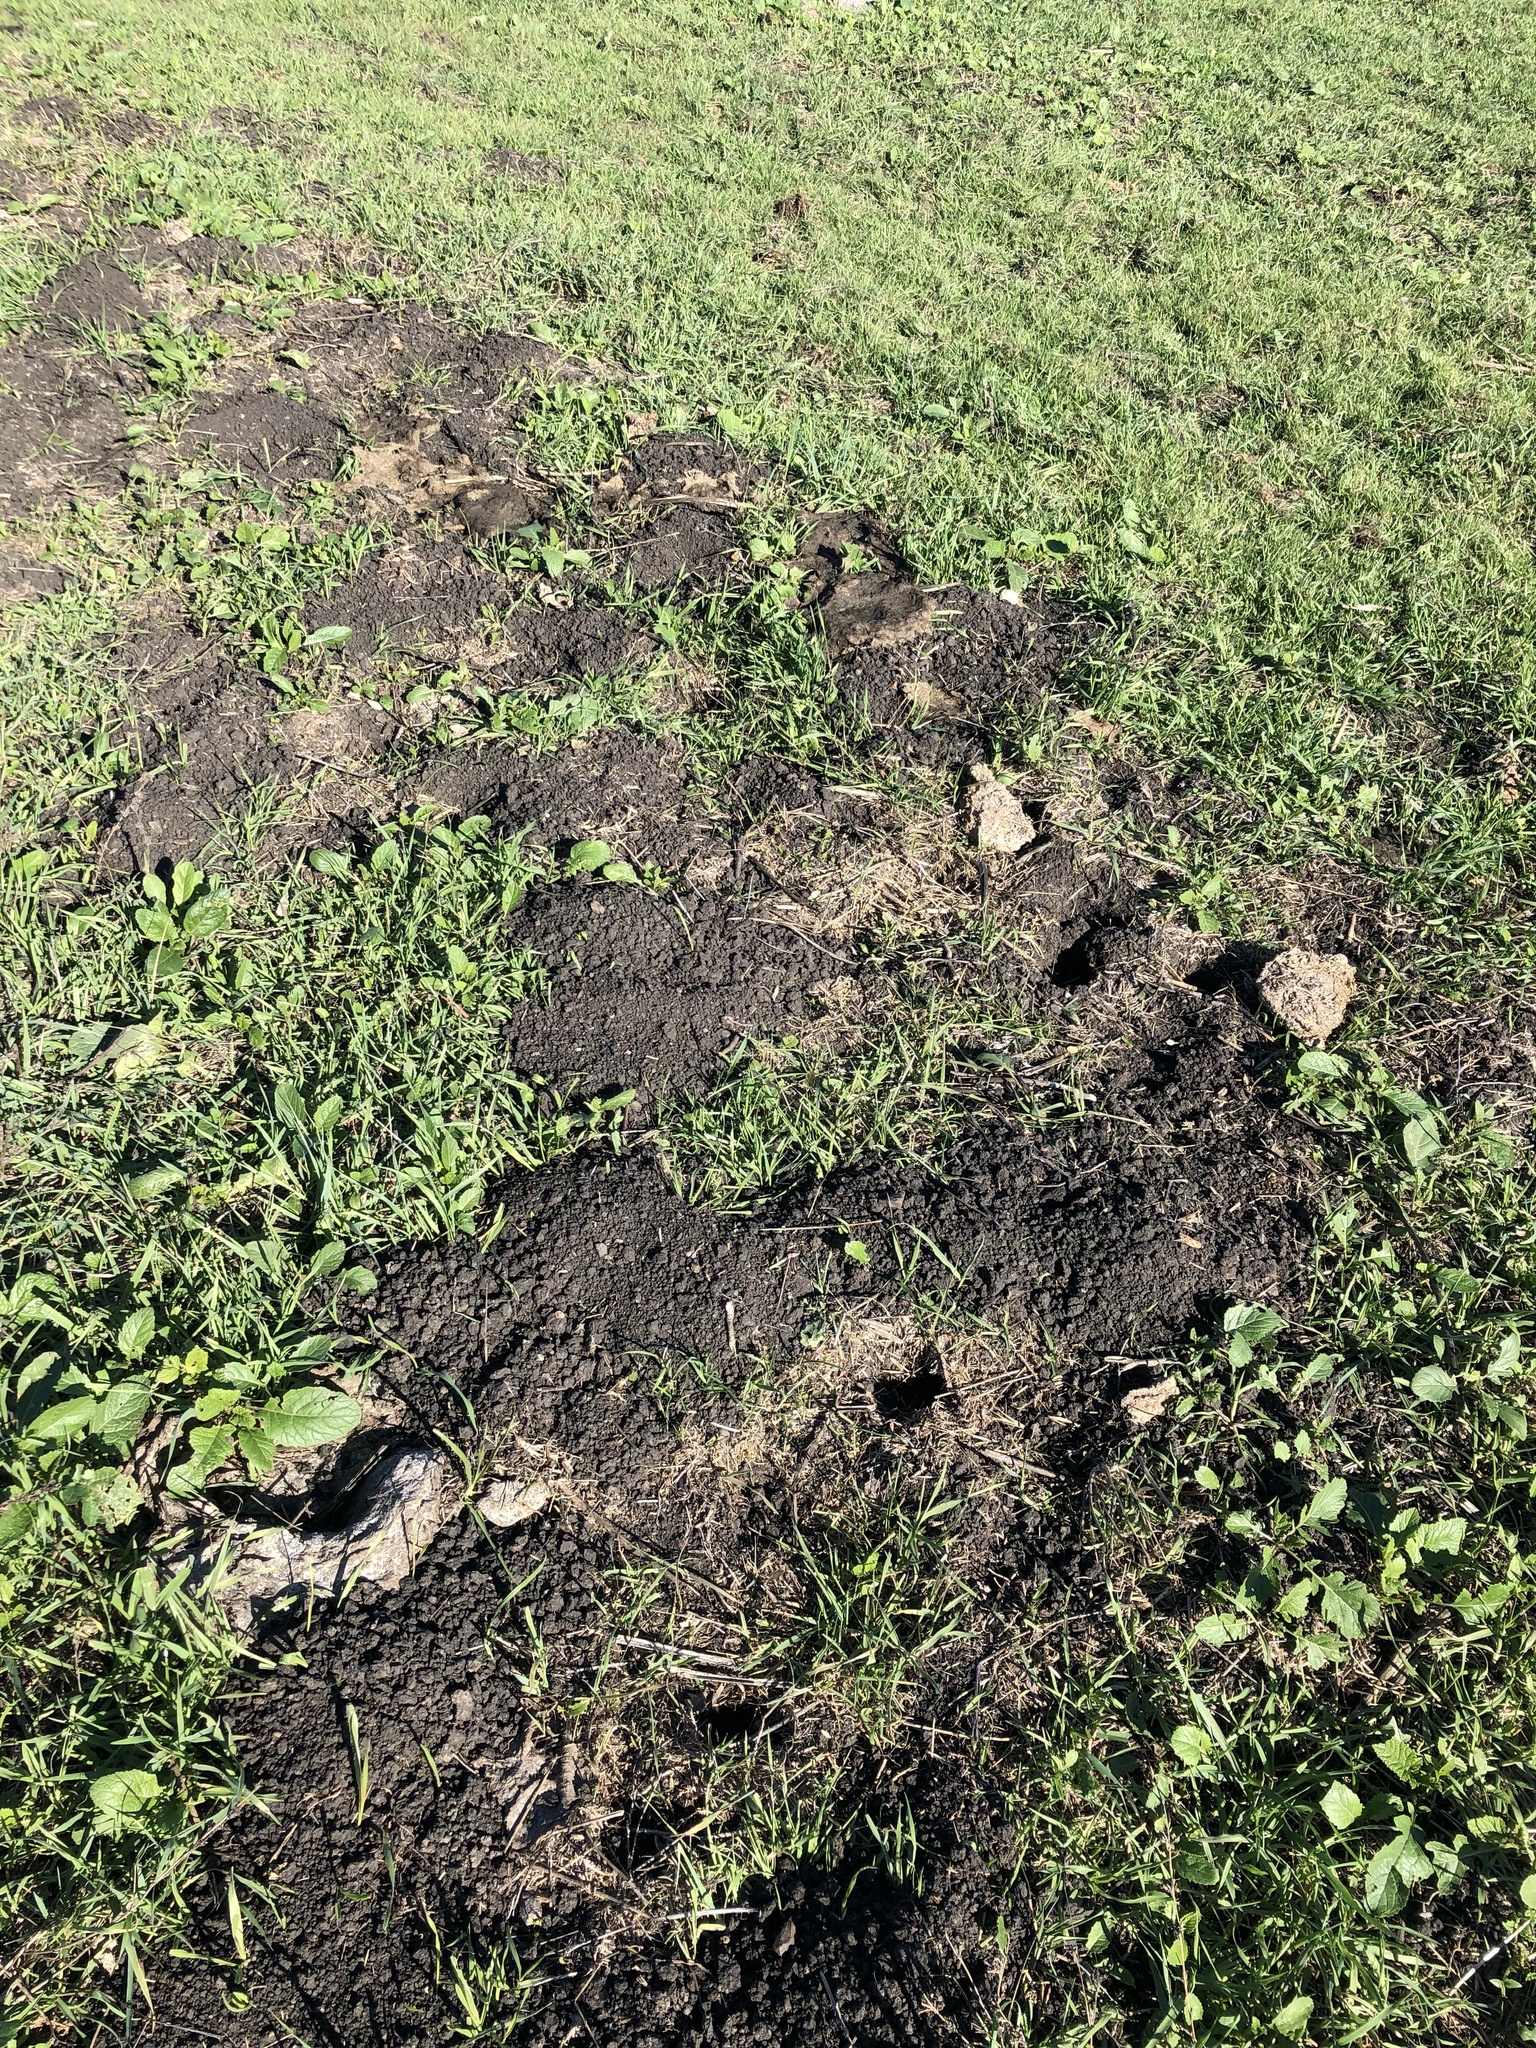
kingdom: Animalia
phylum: Chordata
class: Mammalia
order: Rodentia
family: Geomyidae
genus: Thomomys
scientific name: Thomomys bottae
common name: Botta's pocket gopher
